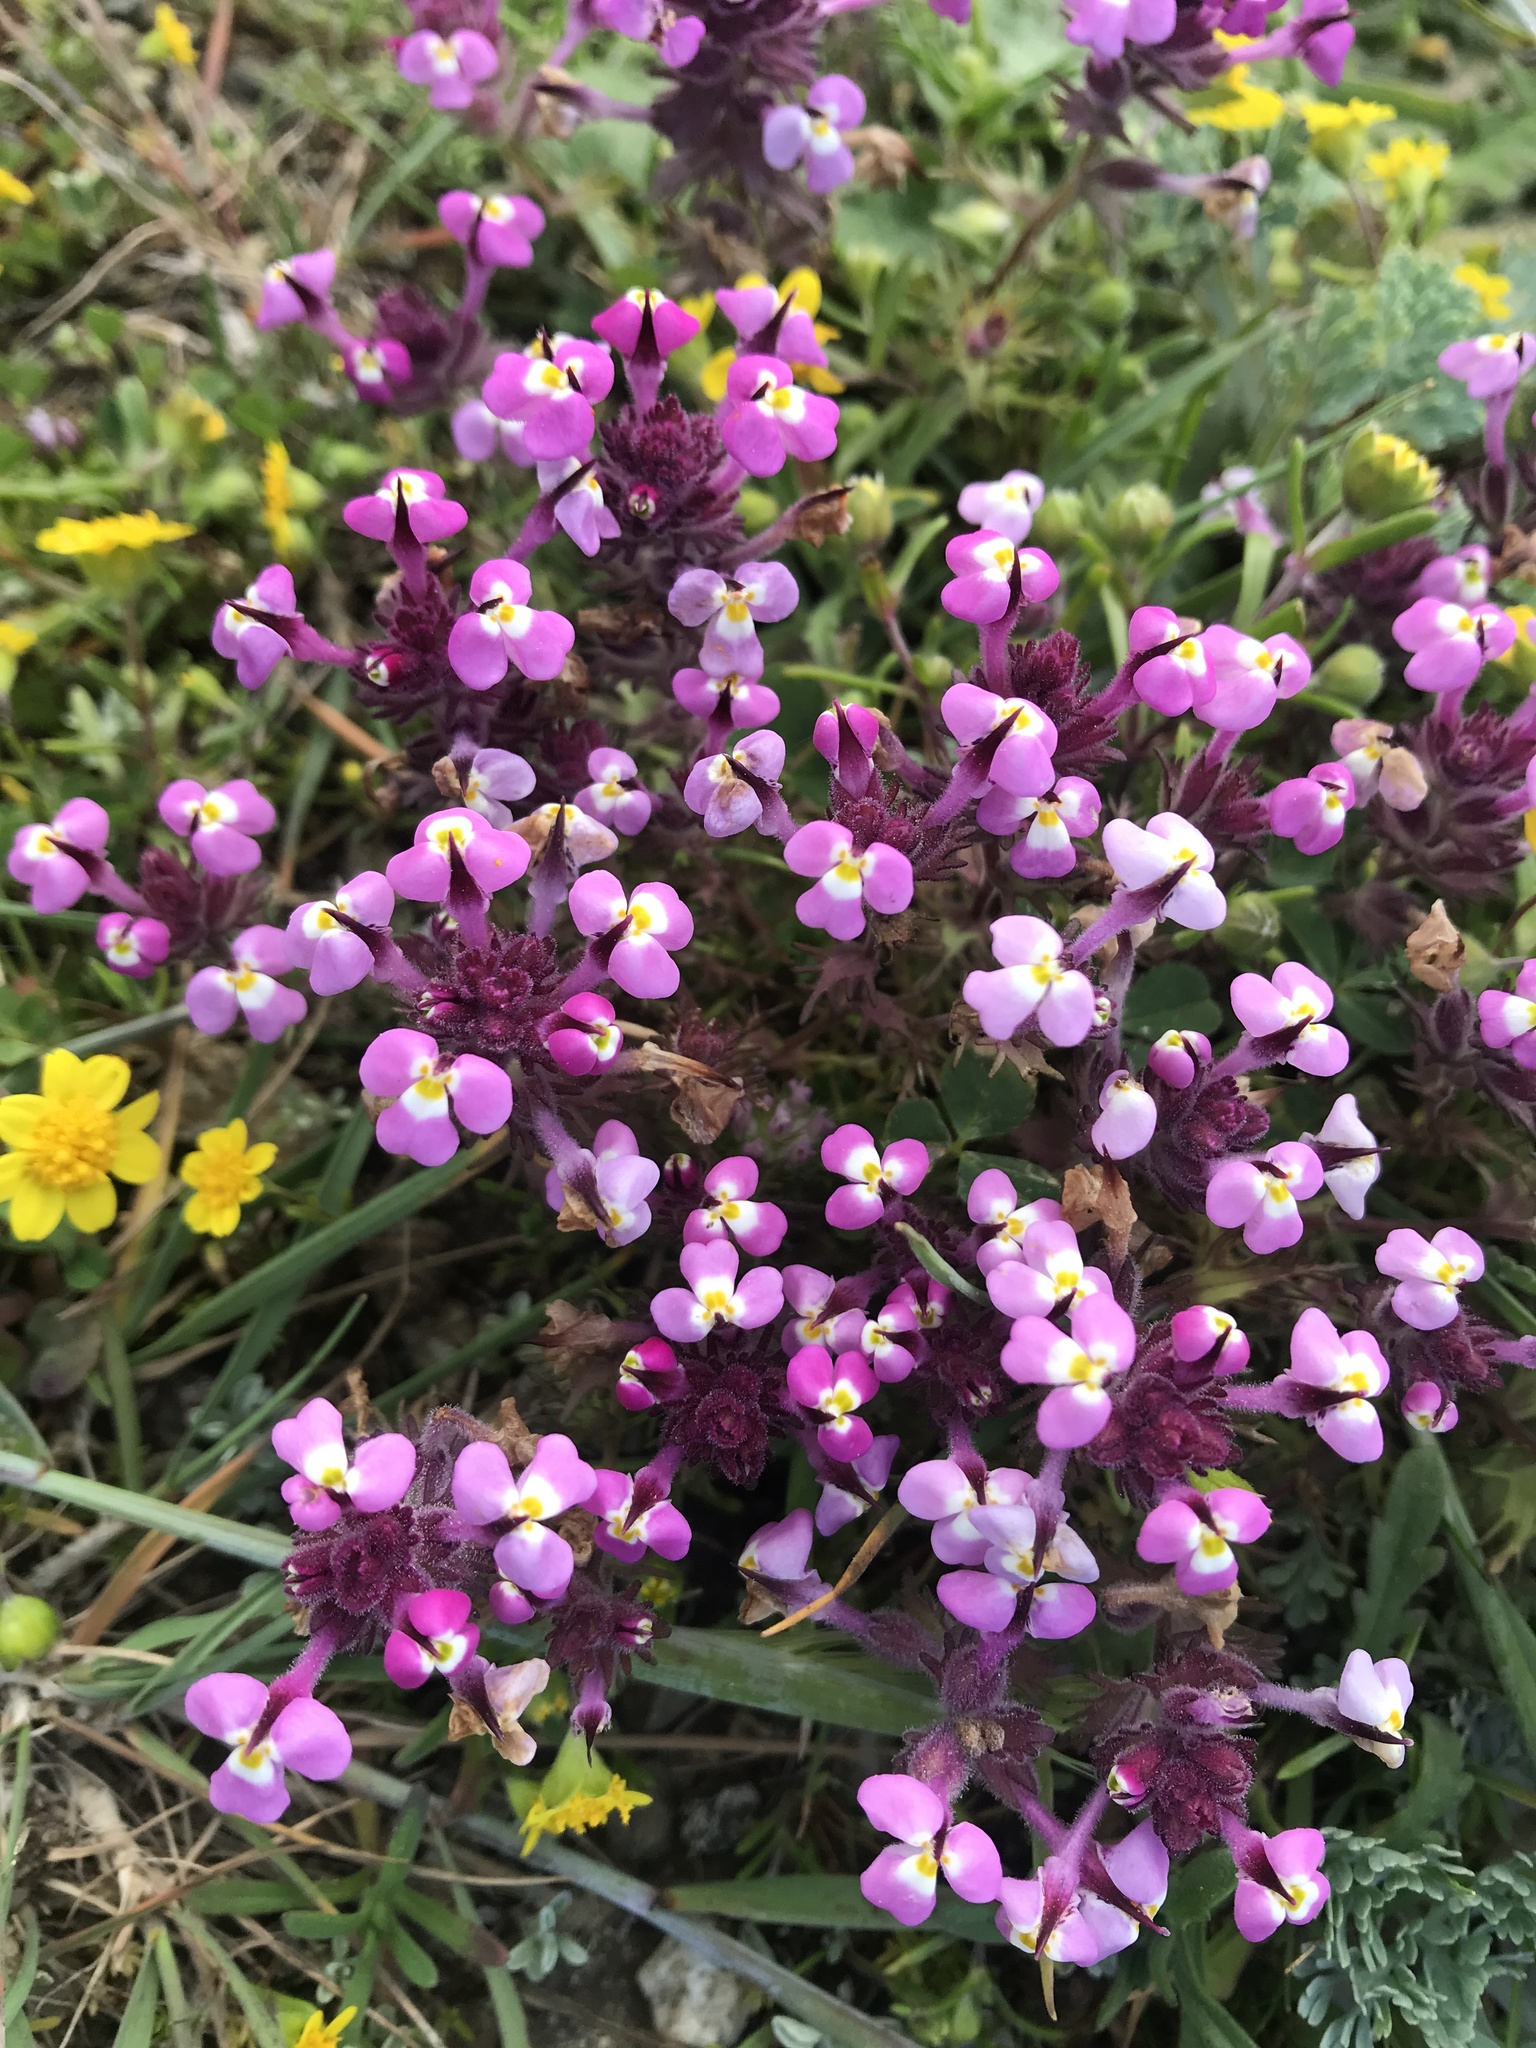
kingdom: Plantae
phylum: Tracheophyta
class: Magnoliopsida
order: Lamiales
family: Orobanchaceae
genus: Triphysaria
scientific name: Triphysaria eriantha
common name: Johnny-tuck
